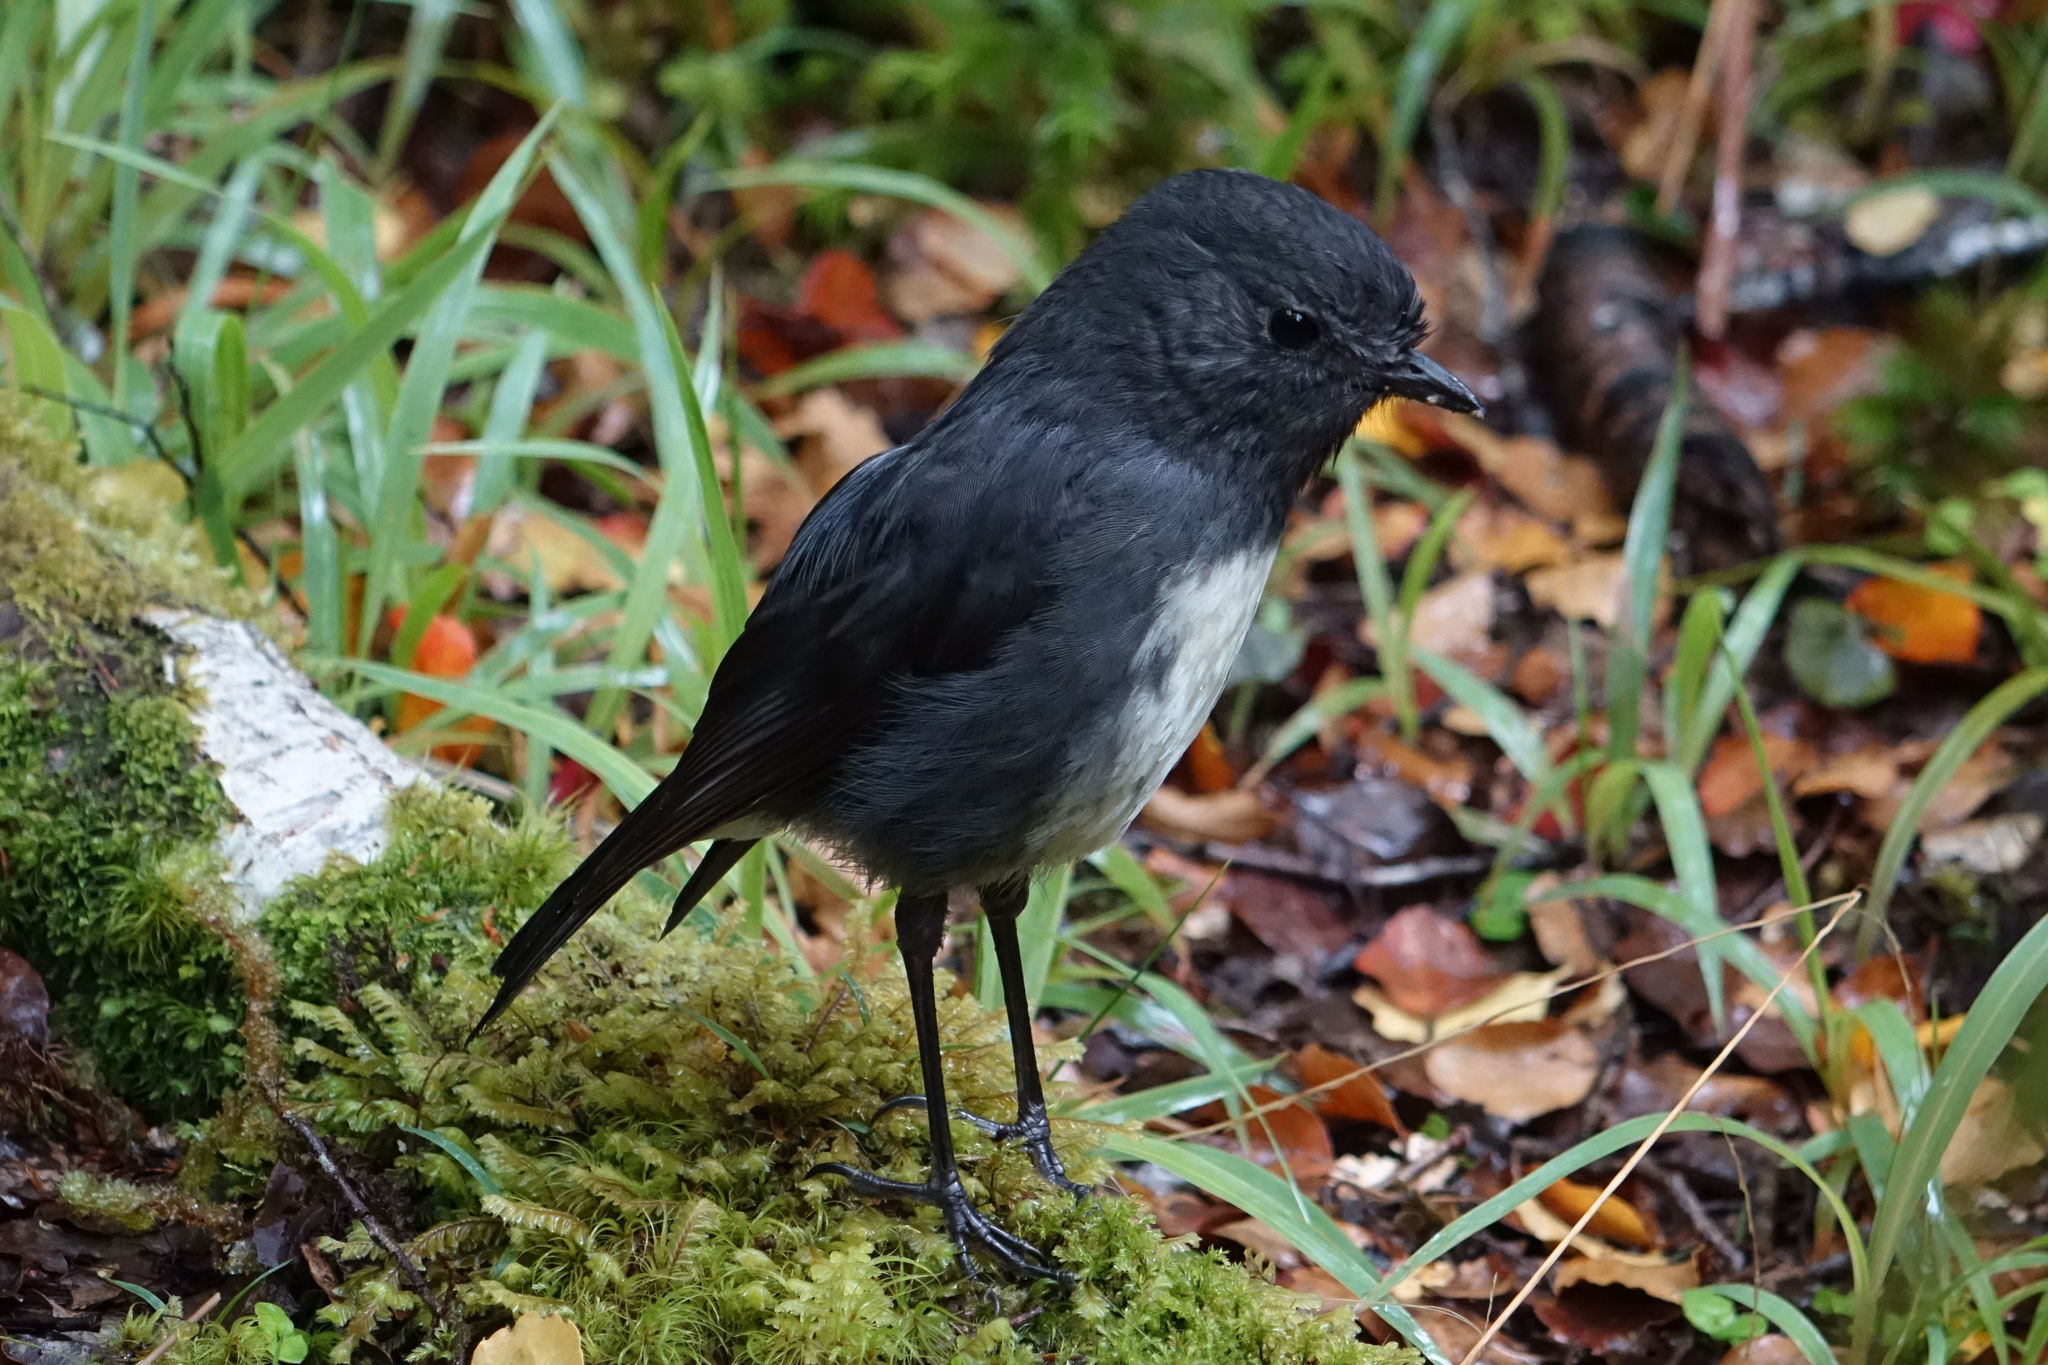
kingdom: Animalia
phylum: Chordata
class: Aves
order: Passeriformes
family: Petroicidae
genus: Petroica
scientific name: Petroica australis
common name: New zealand robin
